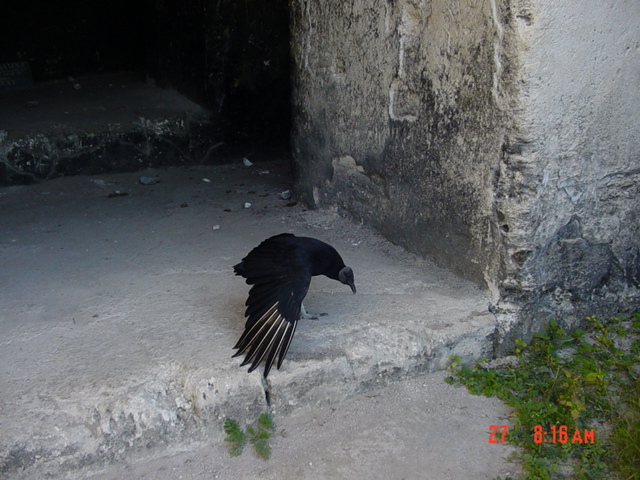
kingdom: Animalia
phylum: Chordata
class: Aves
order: Accipitriformes
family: Cathartidae
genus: Coragyps
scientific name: Coragyps atratus
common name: Black vulture
